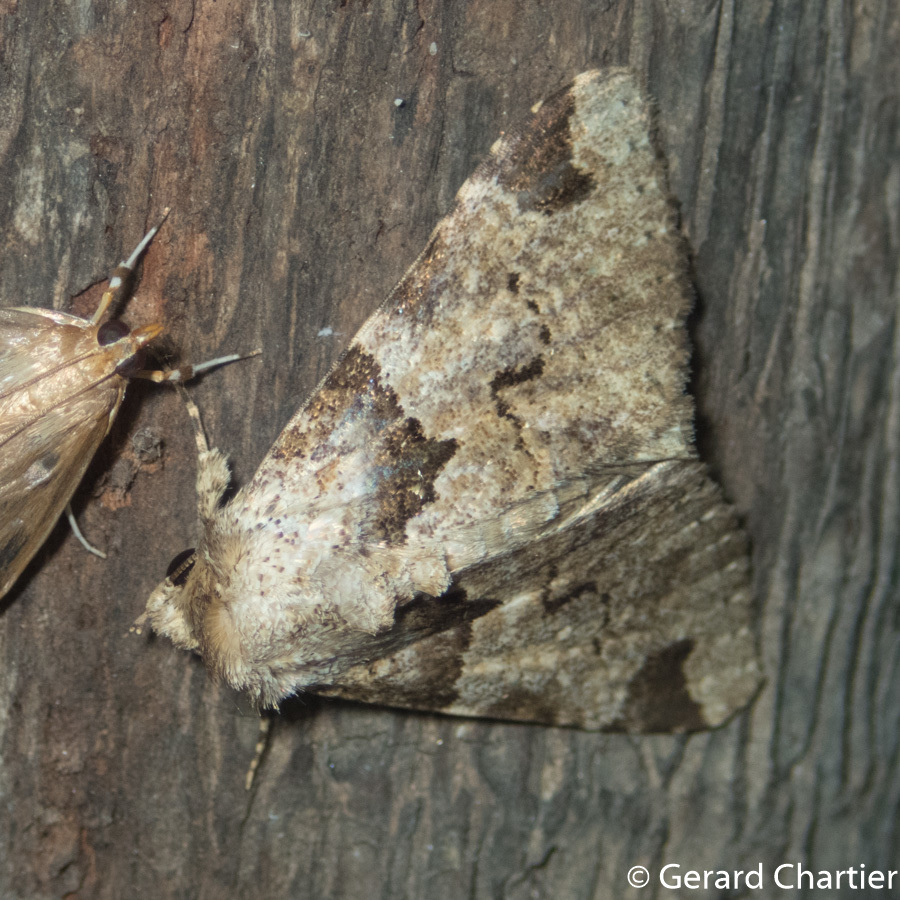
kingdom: Animalia
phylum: Arthropoda
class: Insecta
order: Lepidoptera
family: Erebidae
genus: Erygia
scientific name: Erygia spissa
